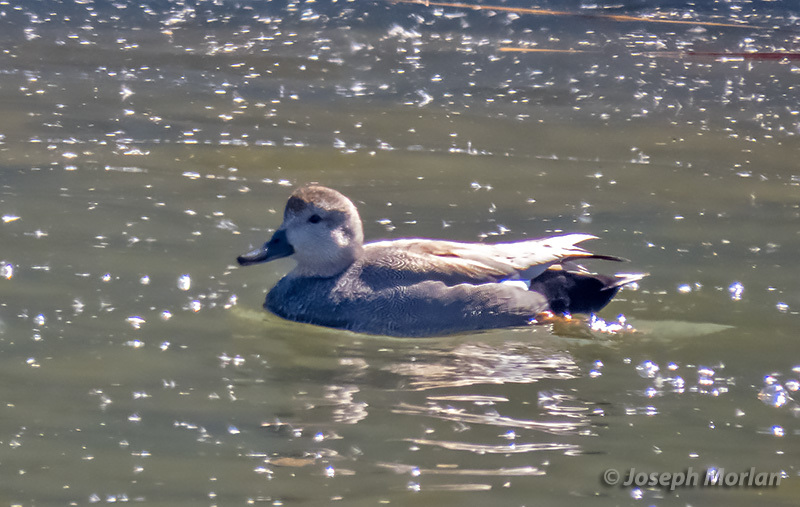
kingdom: Animalia
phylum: Chordata
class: Aves
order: Anseriformes
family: Anatidae
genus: Mareca
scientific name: Mareca strepera
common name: Gadwall
